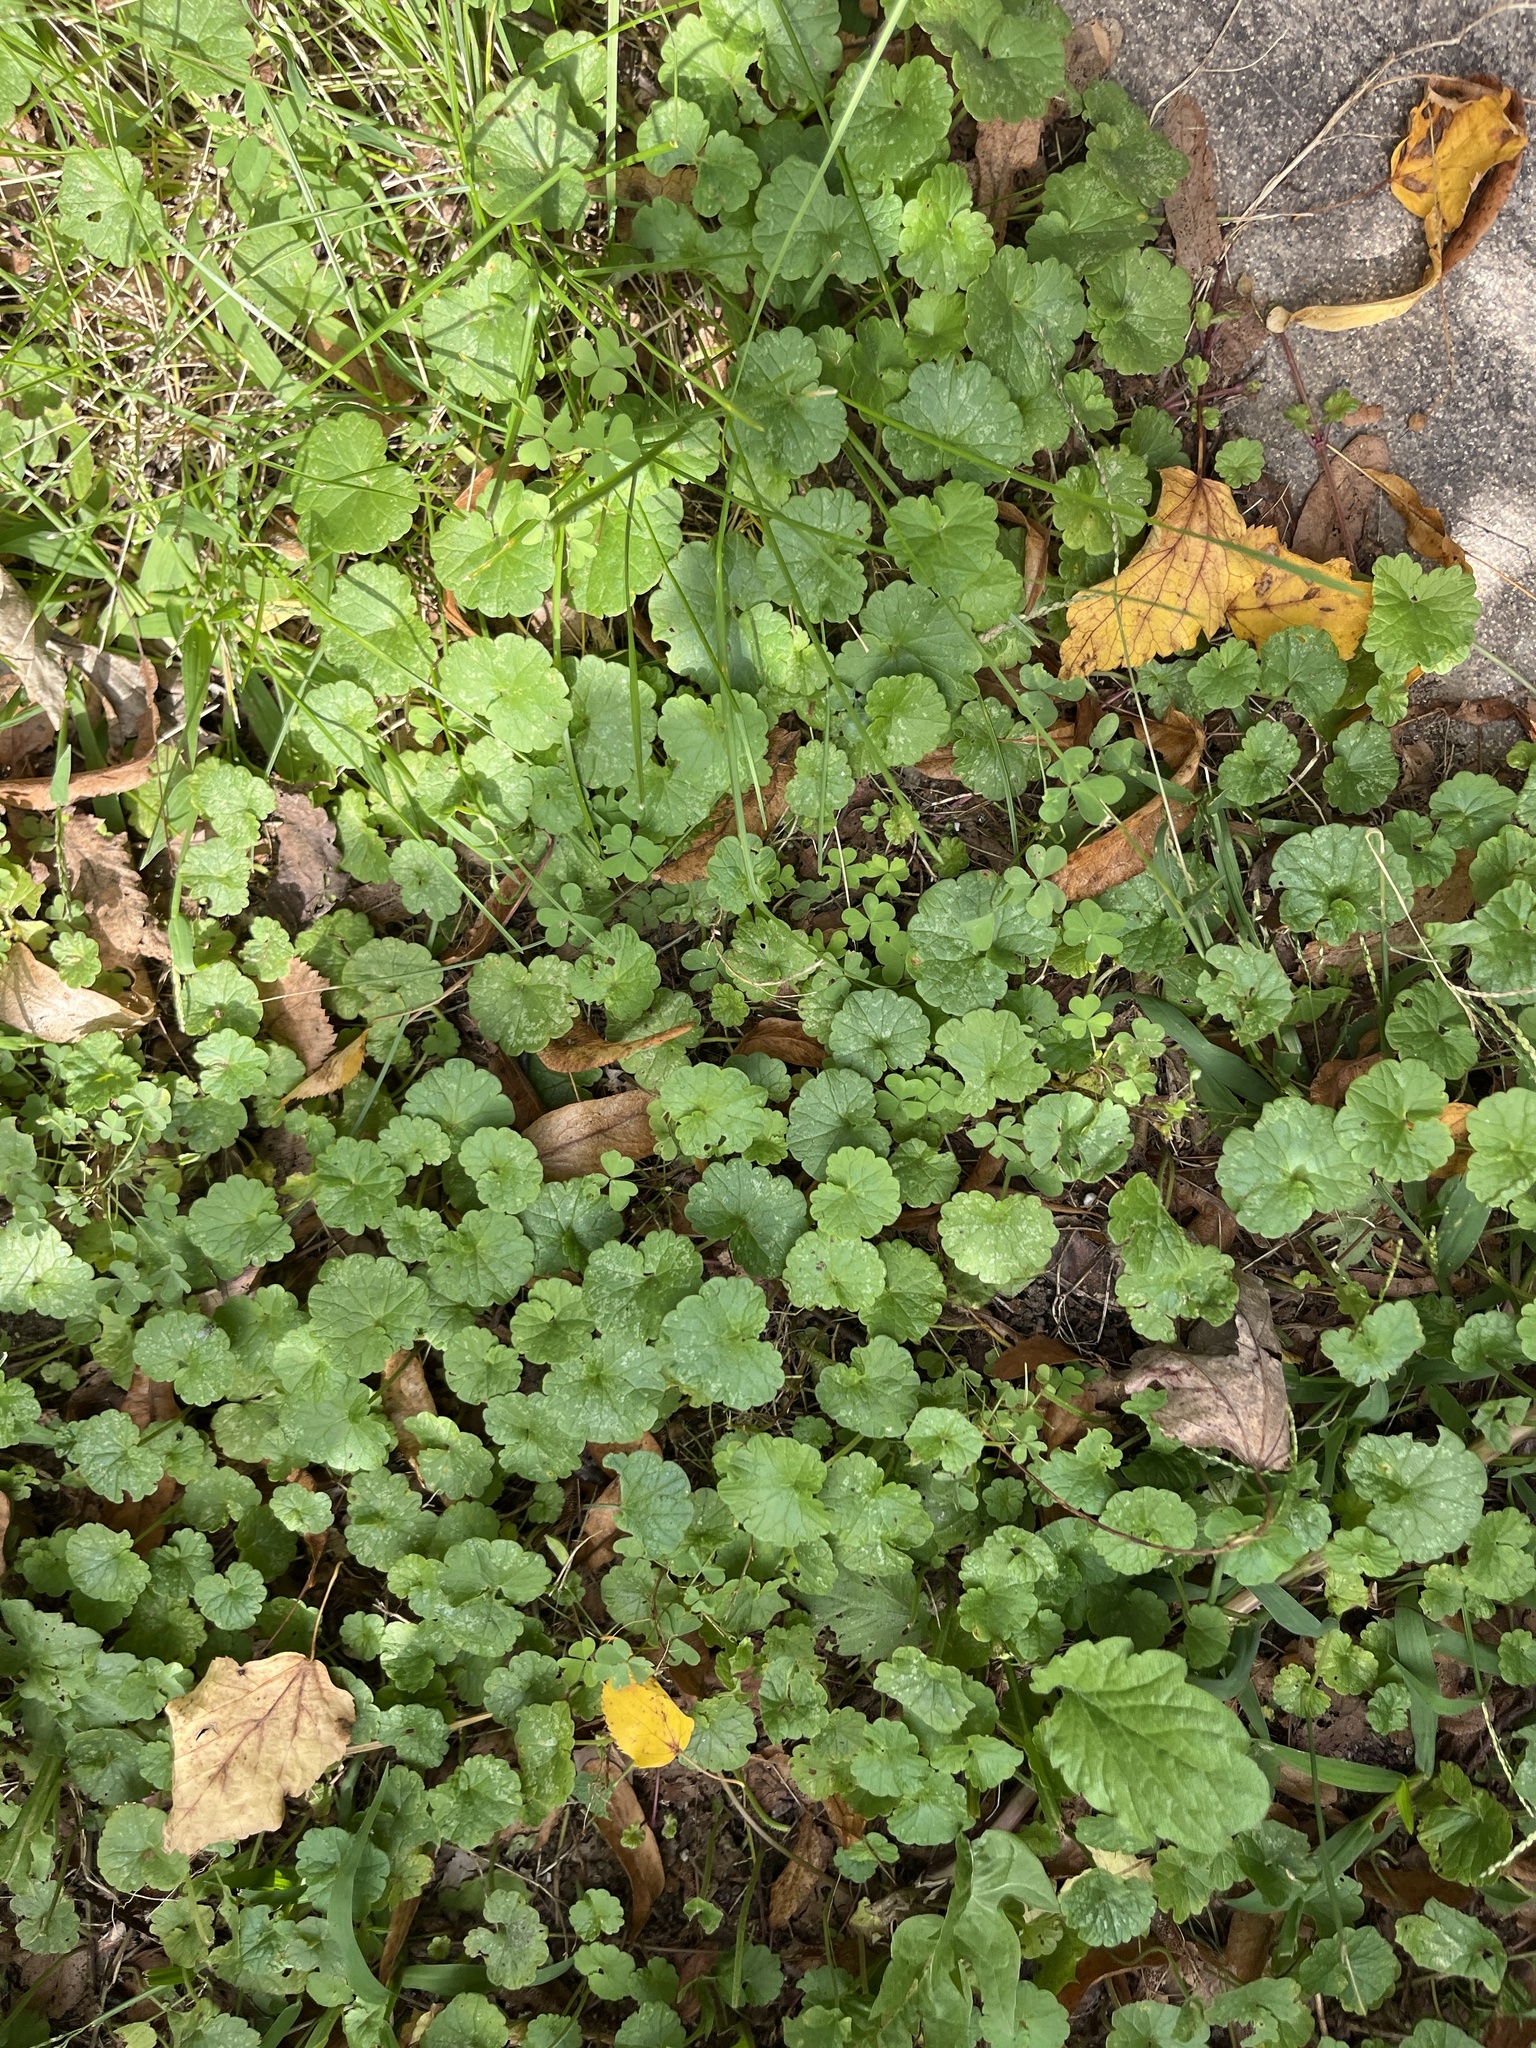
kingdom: Plantae
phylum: Tracheophyta
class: Magnoliopsida
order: Lamiales
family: Lamiaceae
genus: Glechoma
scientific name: Glechoma hederacea
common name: Ground ivy
